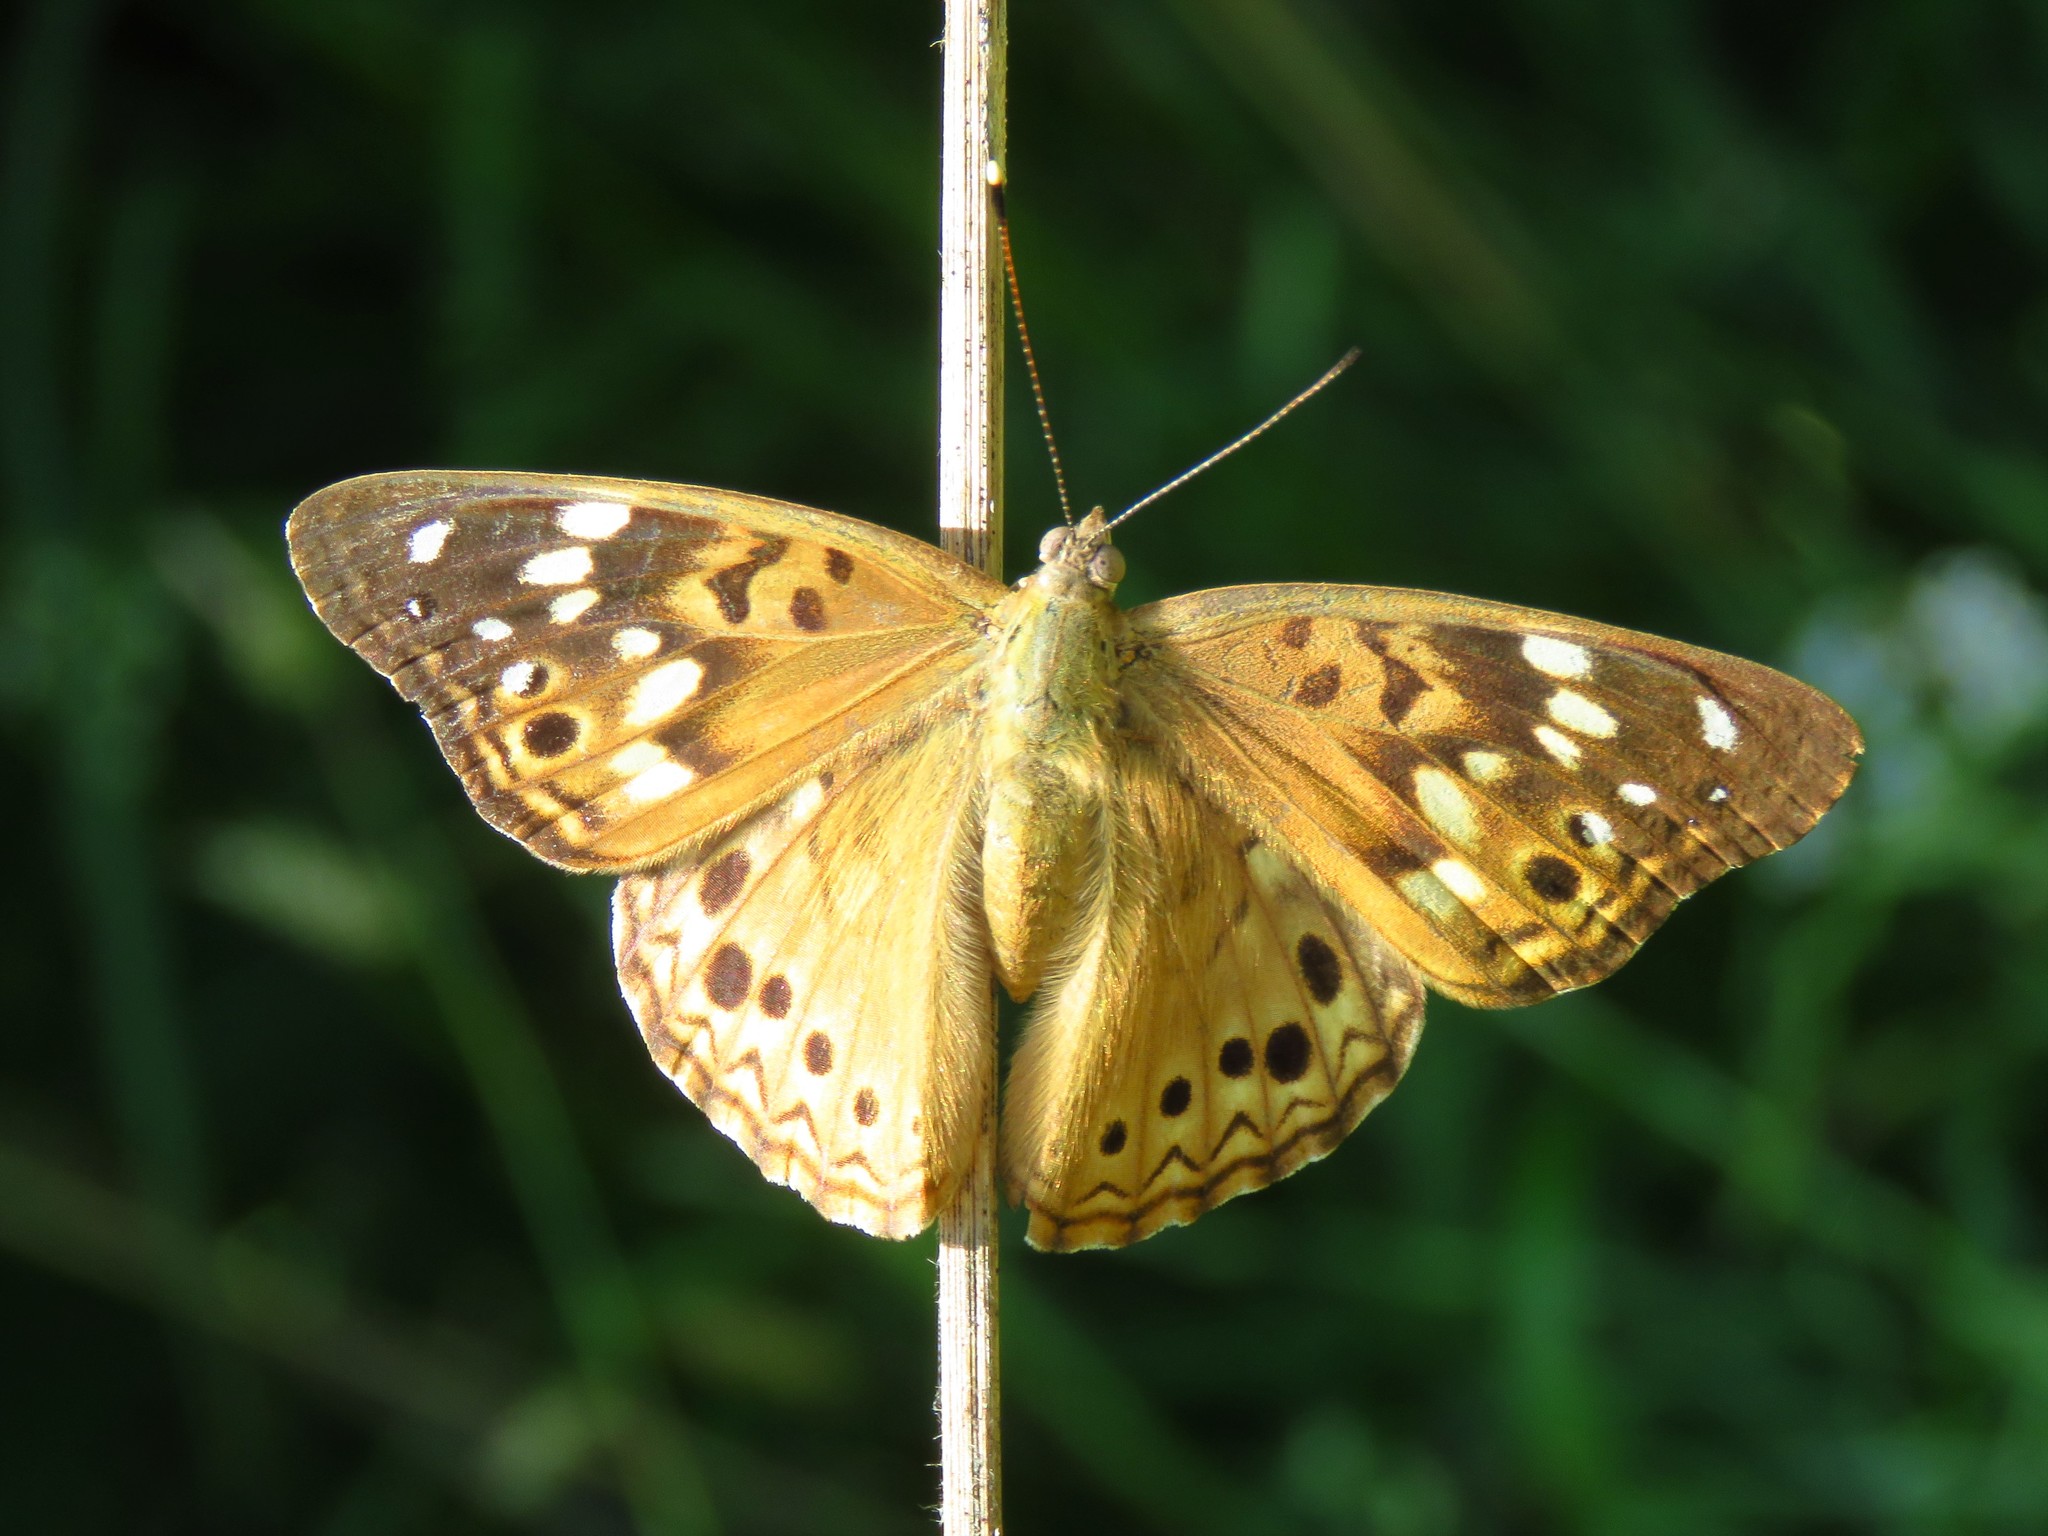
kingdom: Animalia
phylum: Arthropoda
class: Insecta
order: Lepidoptera
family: Nymphalidae
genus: Asterocampa
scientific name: Asterocampa celtis
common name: Hackberry emperor
